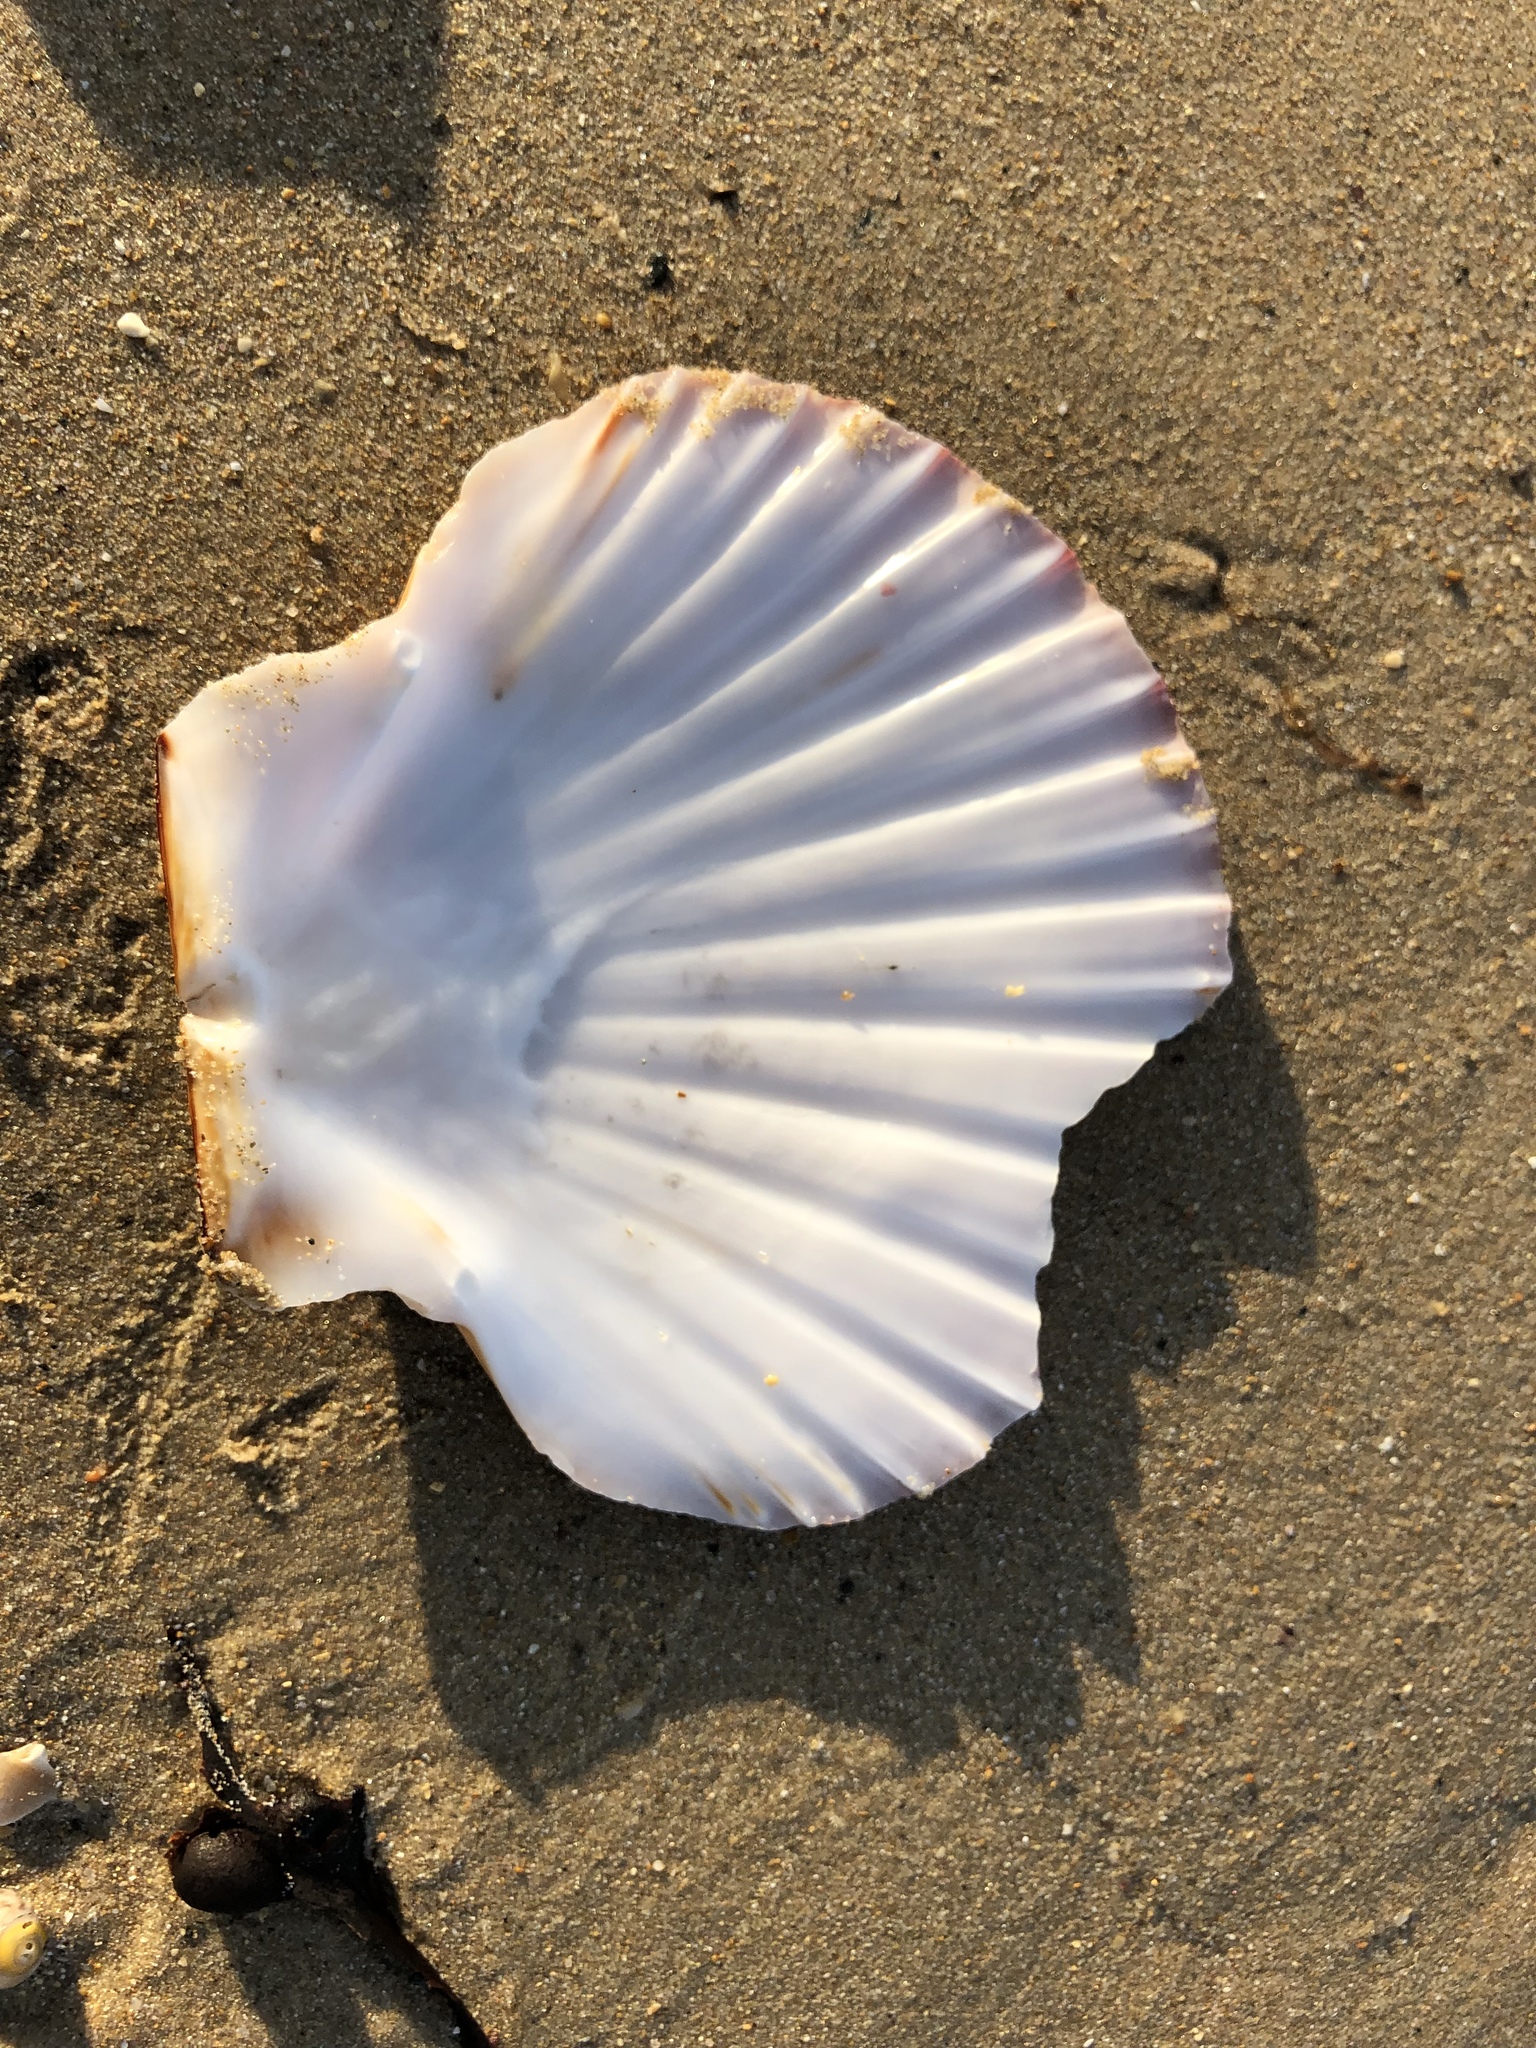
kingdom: Animalia
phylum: Mollusca
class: Bivalvia
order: Pectinida
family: Pectinidae
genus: Pecten
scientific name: Pecten maximus
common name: Great scallop
